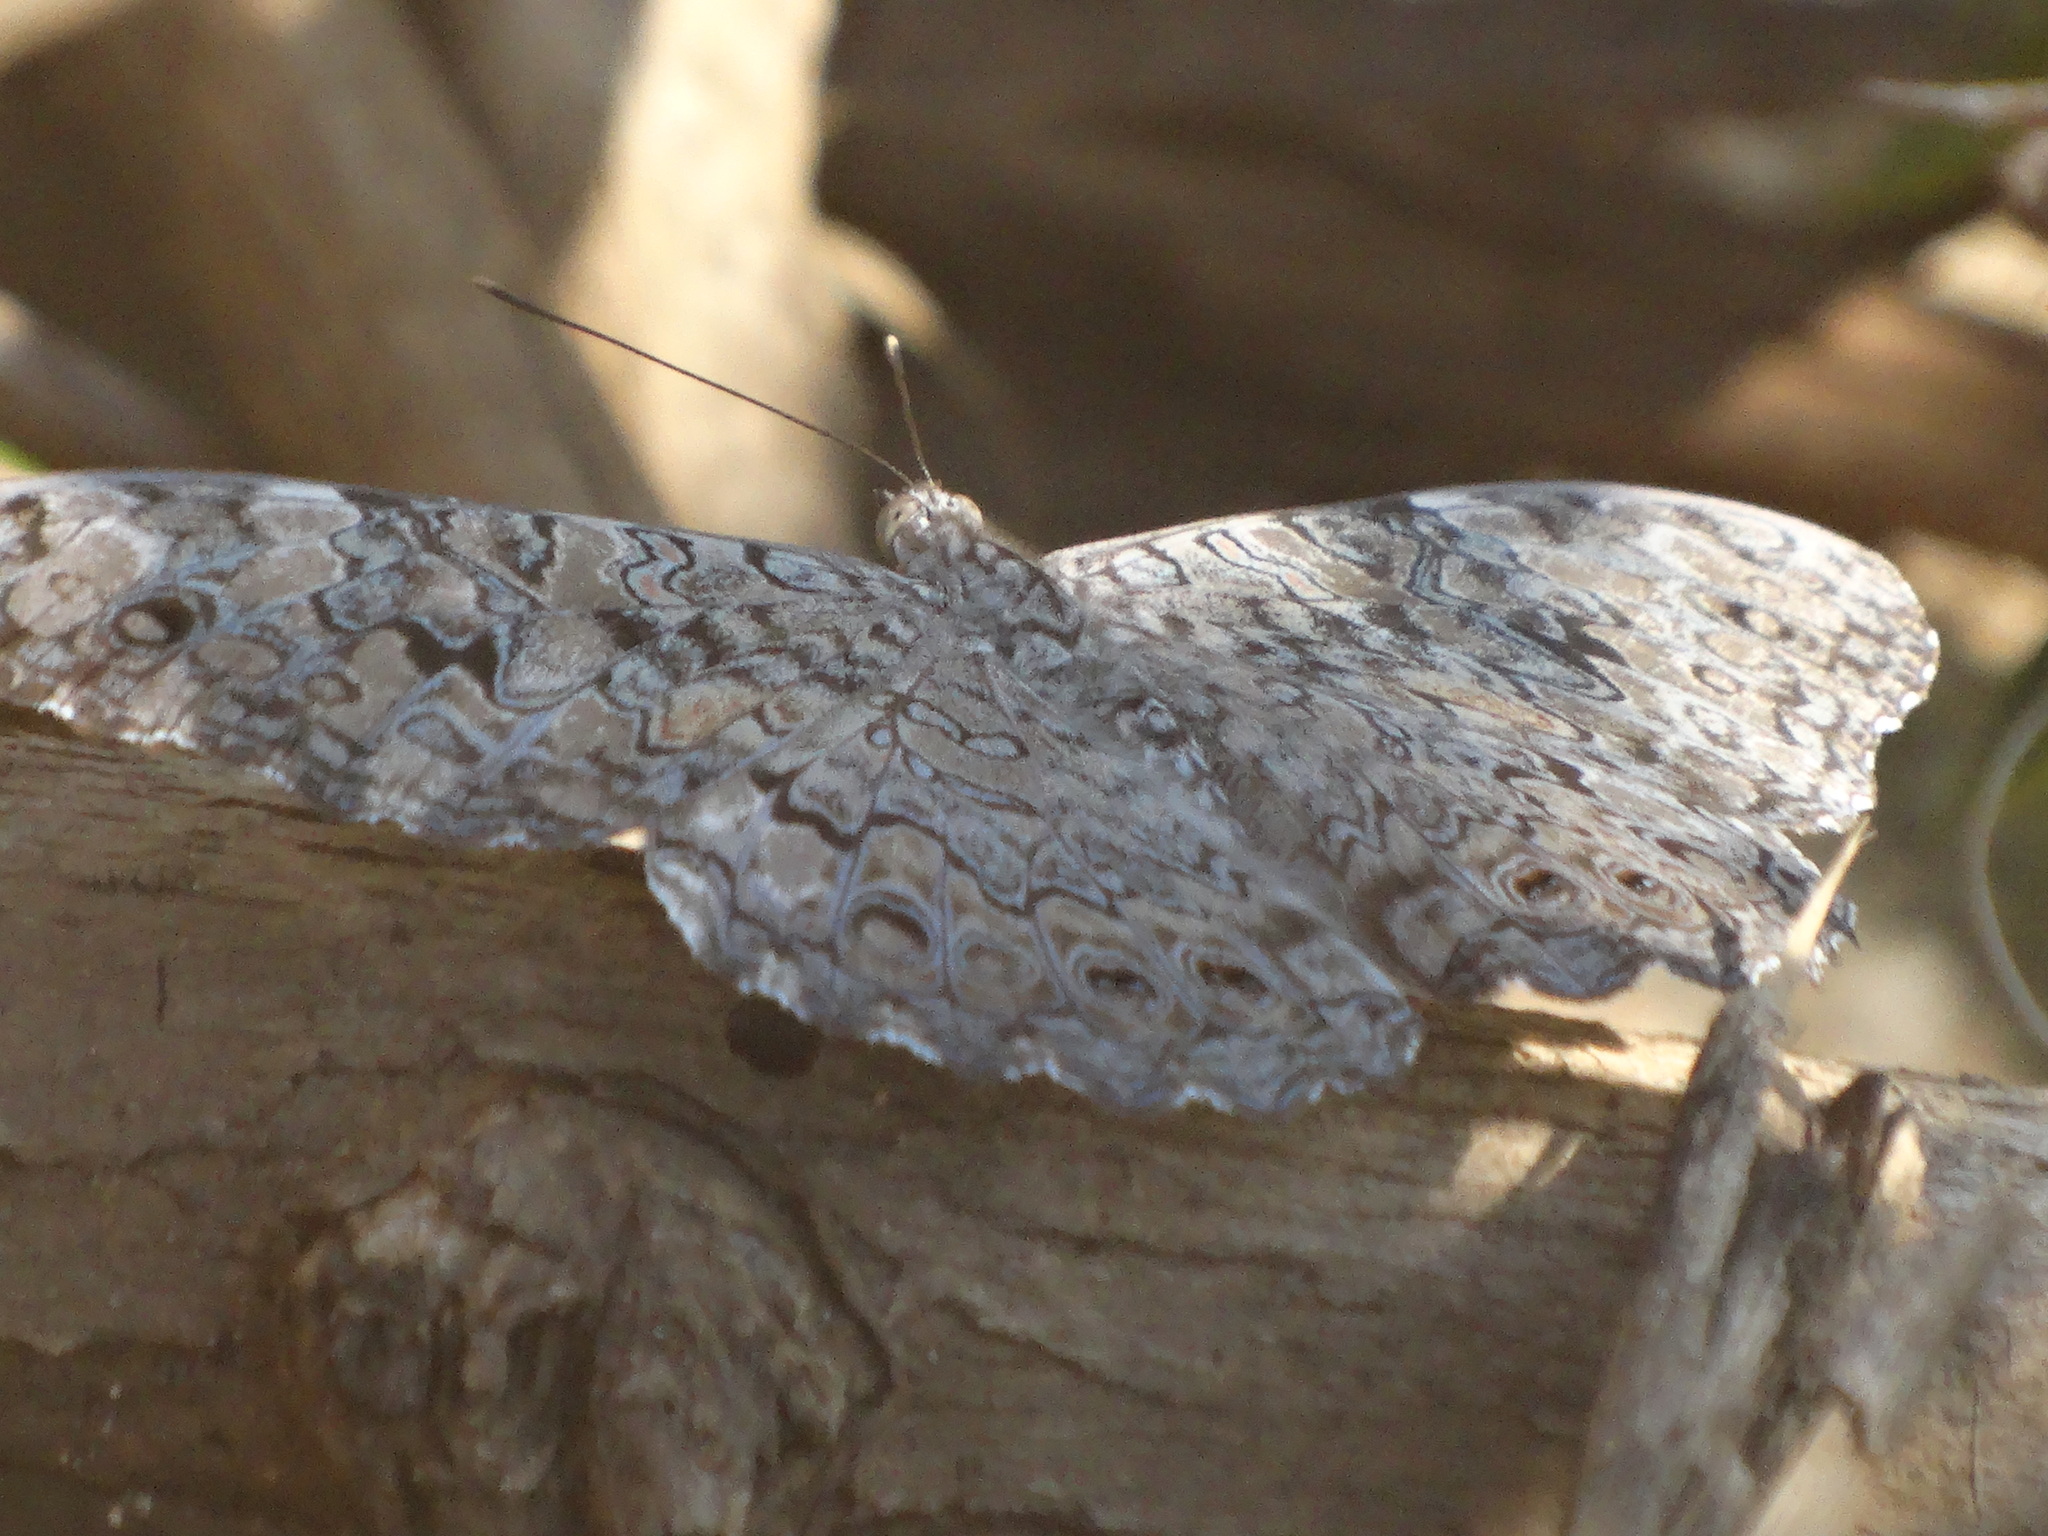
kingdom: Animalia
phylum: Arthropoda
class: Insecta
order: Lepidoptera
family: Nymphalidae
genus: Hamadryas
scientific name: Hamadryas februa
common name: Gray cracker
